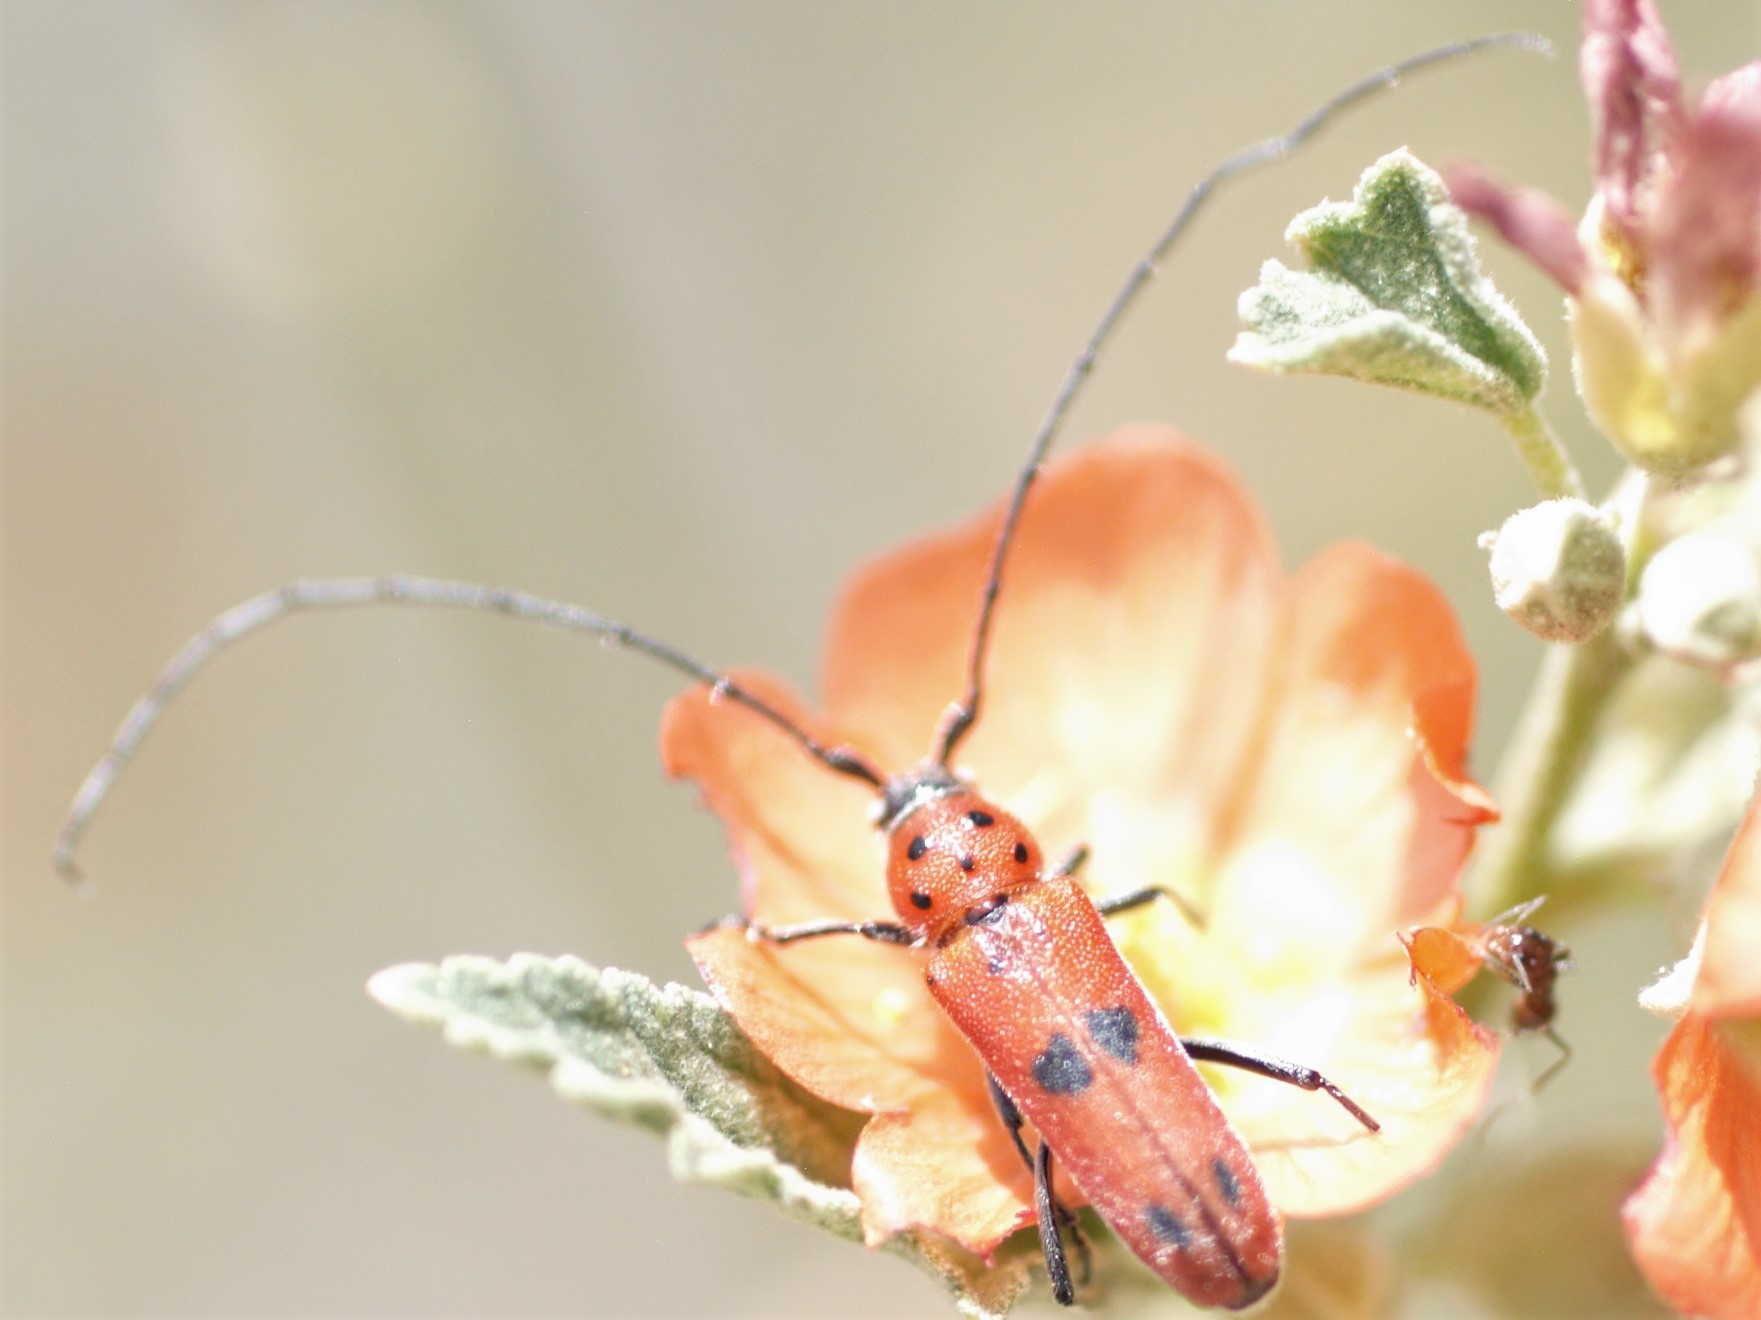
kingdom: Animalia
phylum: Arthropoda
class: Insecta
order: Coleoptera
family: Cerambycidae
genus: Tylosis
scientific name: Tylosis maculatus
